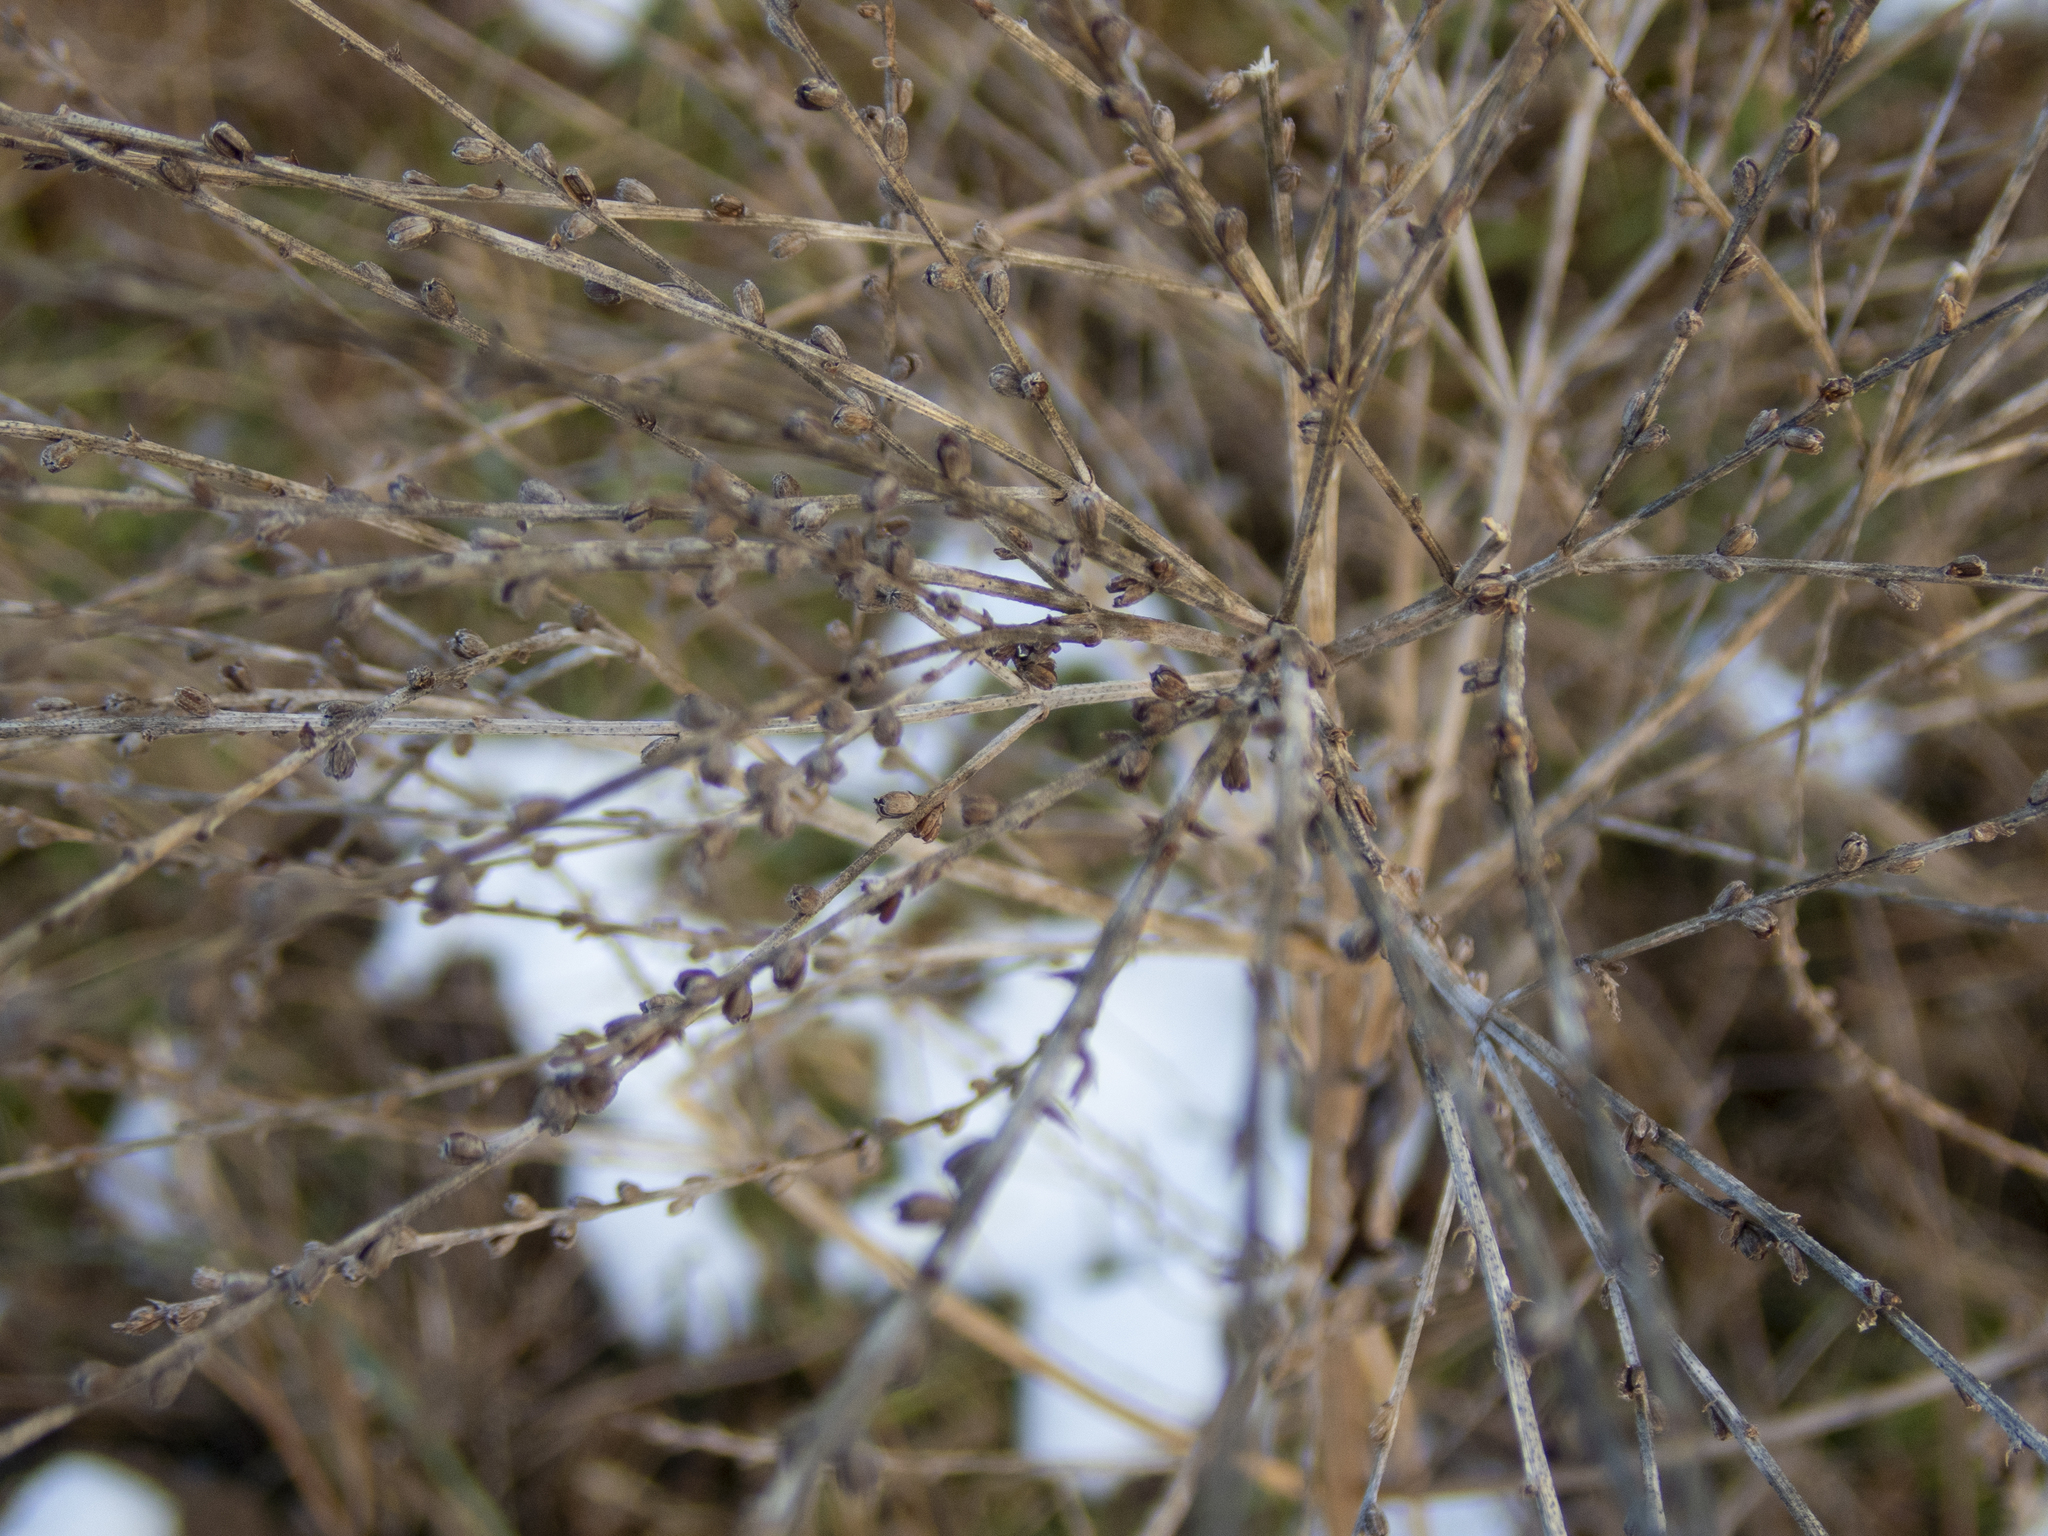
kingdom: Plantae
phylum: Tracheophyta
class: Magnoliopsida
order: Lamiales
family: Verbenaceae
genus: Verbena
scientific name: Verbena urticifolia
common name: Nettle-leaved vervain
